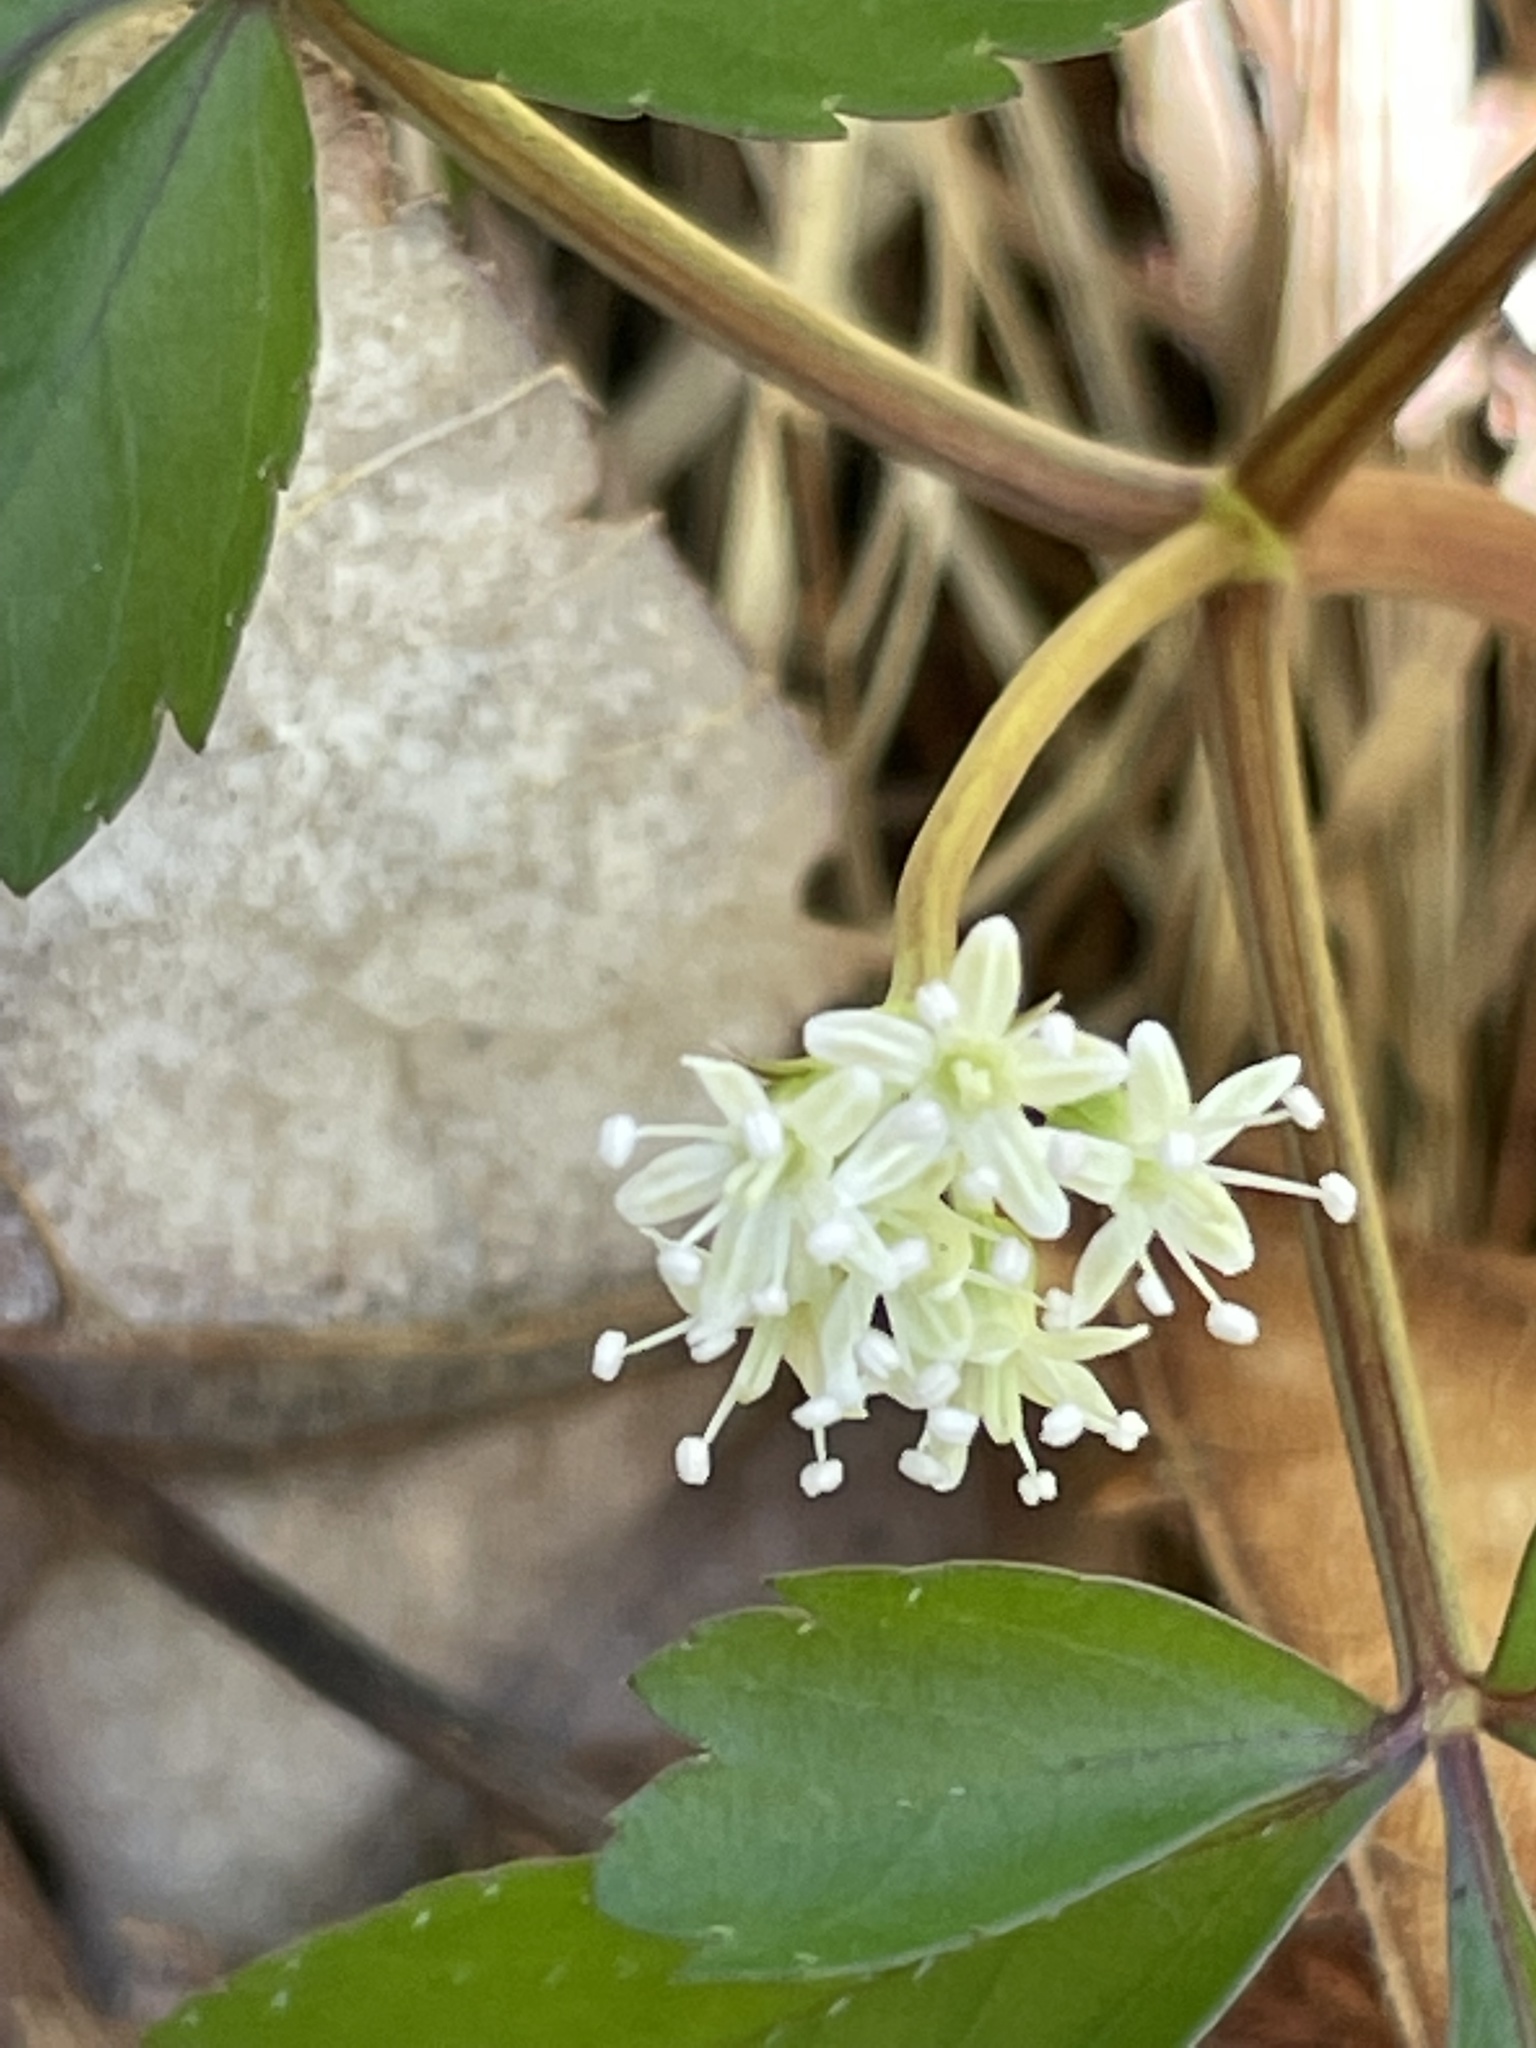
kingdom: Plantae
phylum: Tracheophyta
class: Magnoliopsida
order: Apiales
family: Araliaceae
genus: Panax
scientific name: Panax trifolius
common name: Dwarf ginseng
